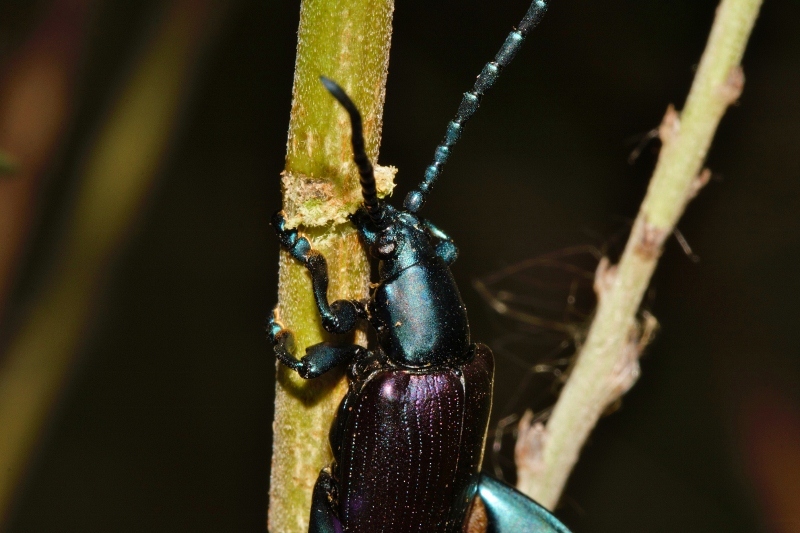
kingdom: Animalia
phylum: Arthropoda
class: Insecta
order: Coleoptera
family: Chrysomelidae
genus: Sagra
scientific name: Sagra
